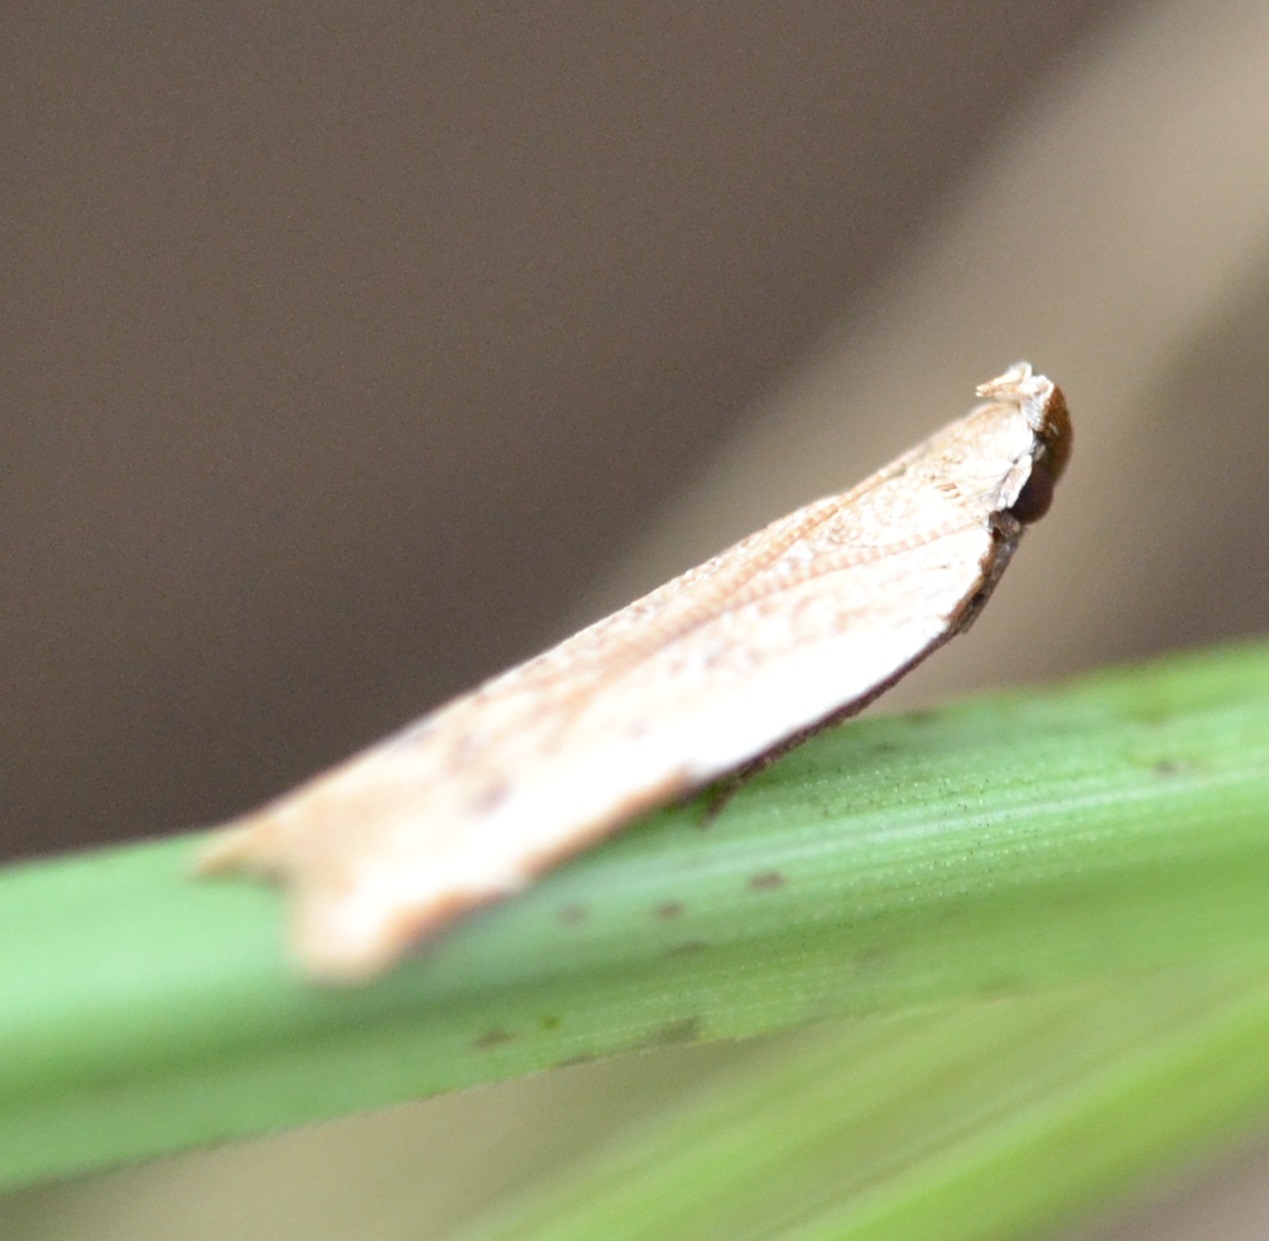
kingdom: Animalia
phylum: Arthropoda
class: Insecta
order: Lepidoptera
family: Gelechiidae
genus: Mesophleps
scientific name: Mesophleps adustipennis
